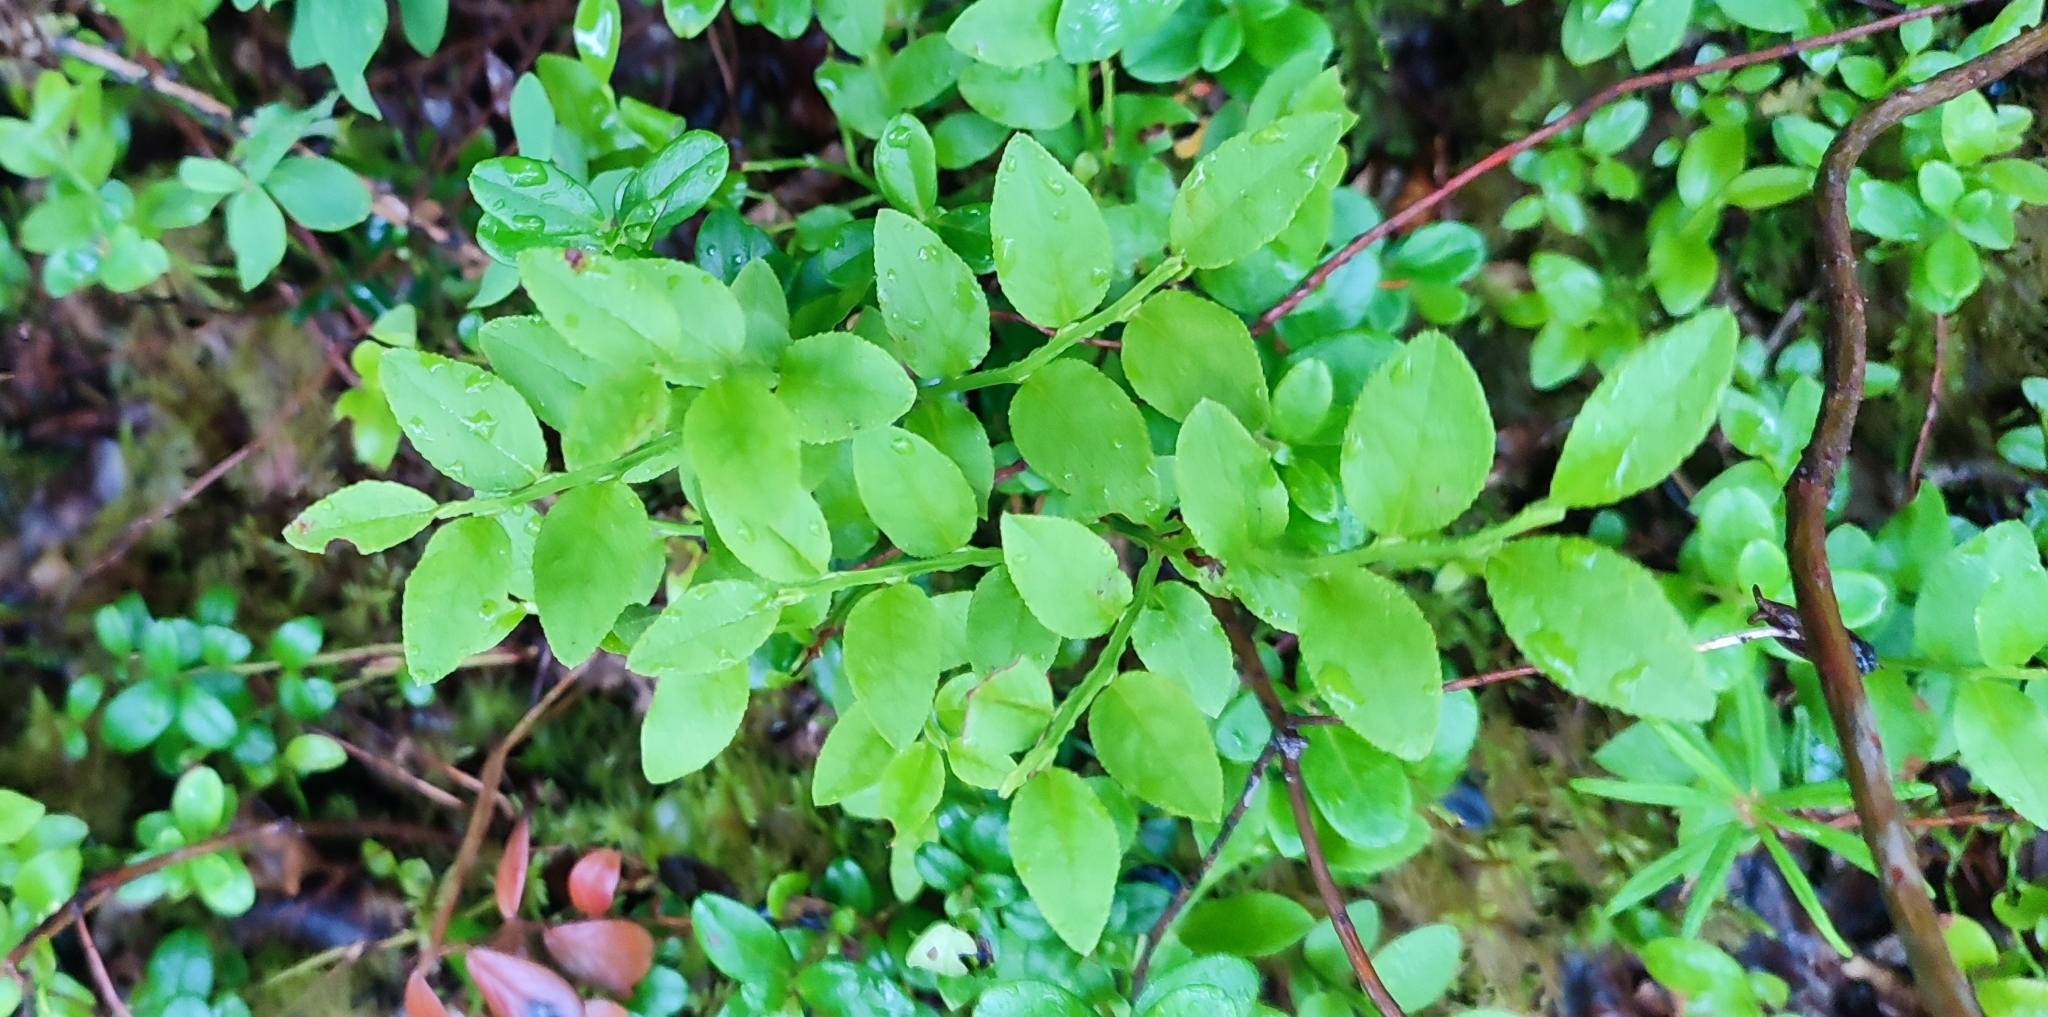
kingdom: Plantae
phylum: Tracheophyta
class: Magnoliopsida
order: Ericales
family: Ericaceae
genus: Vaccinium
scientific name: Vaccinium myrtillus
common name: Bilberry
